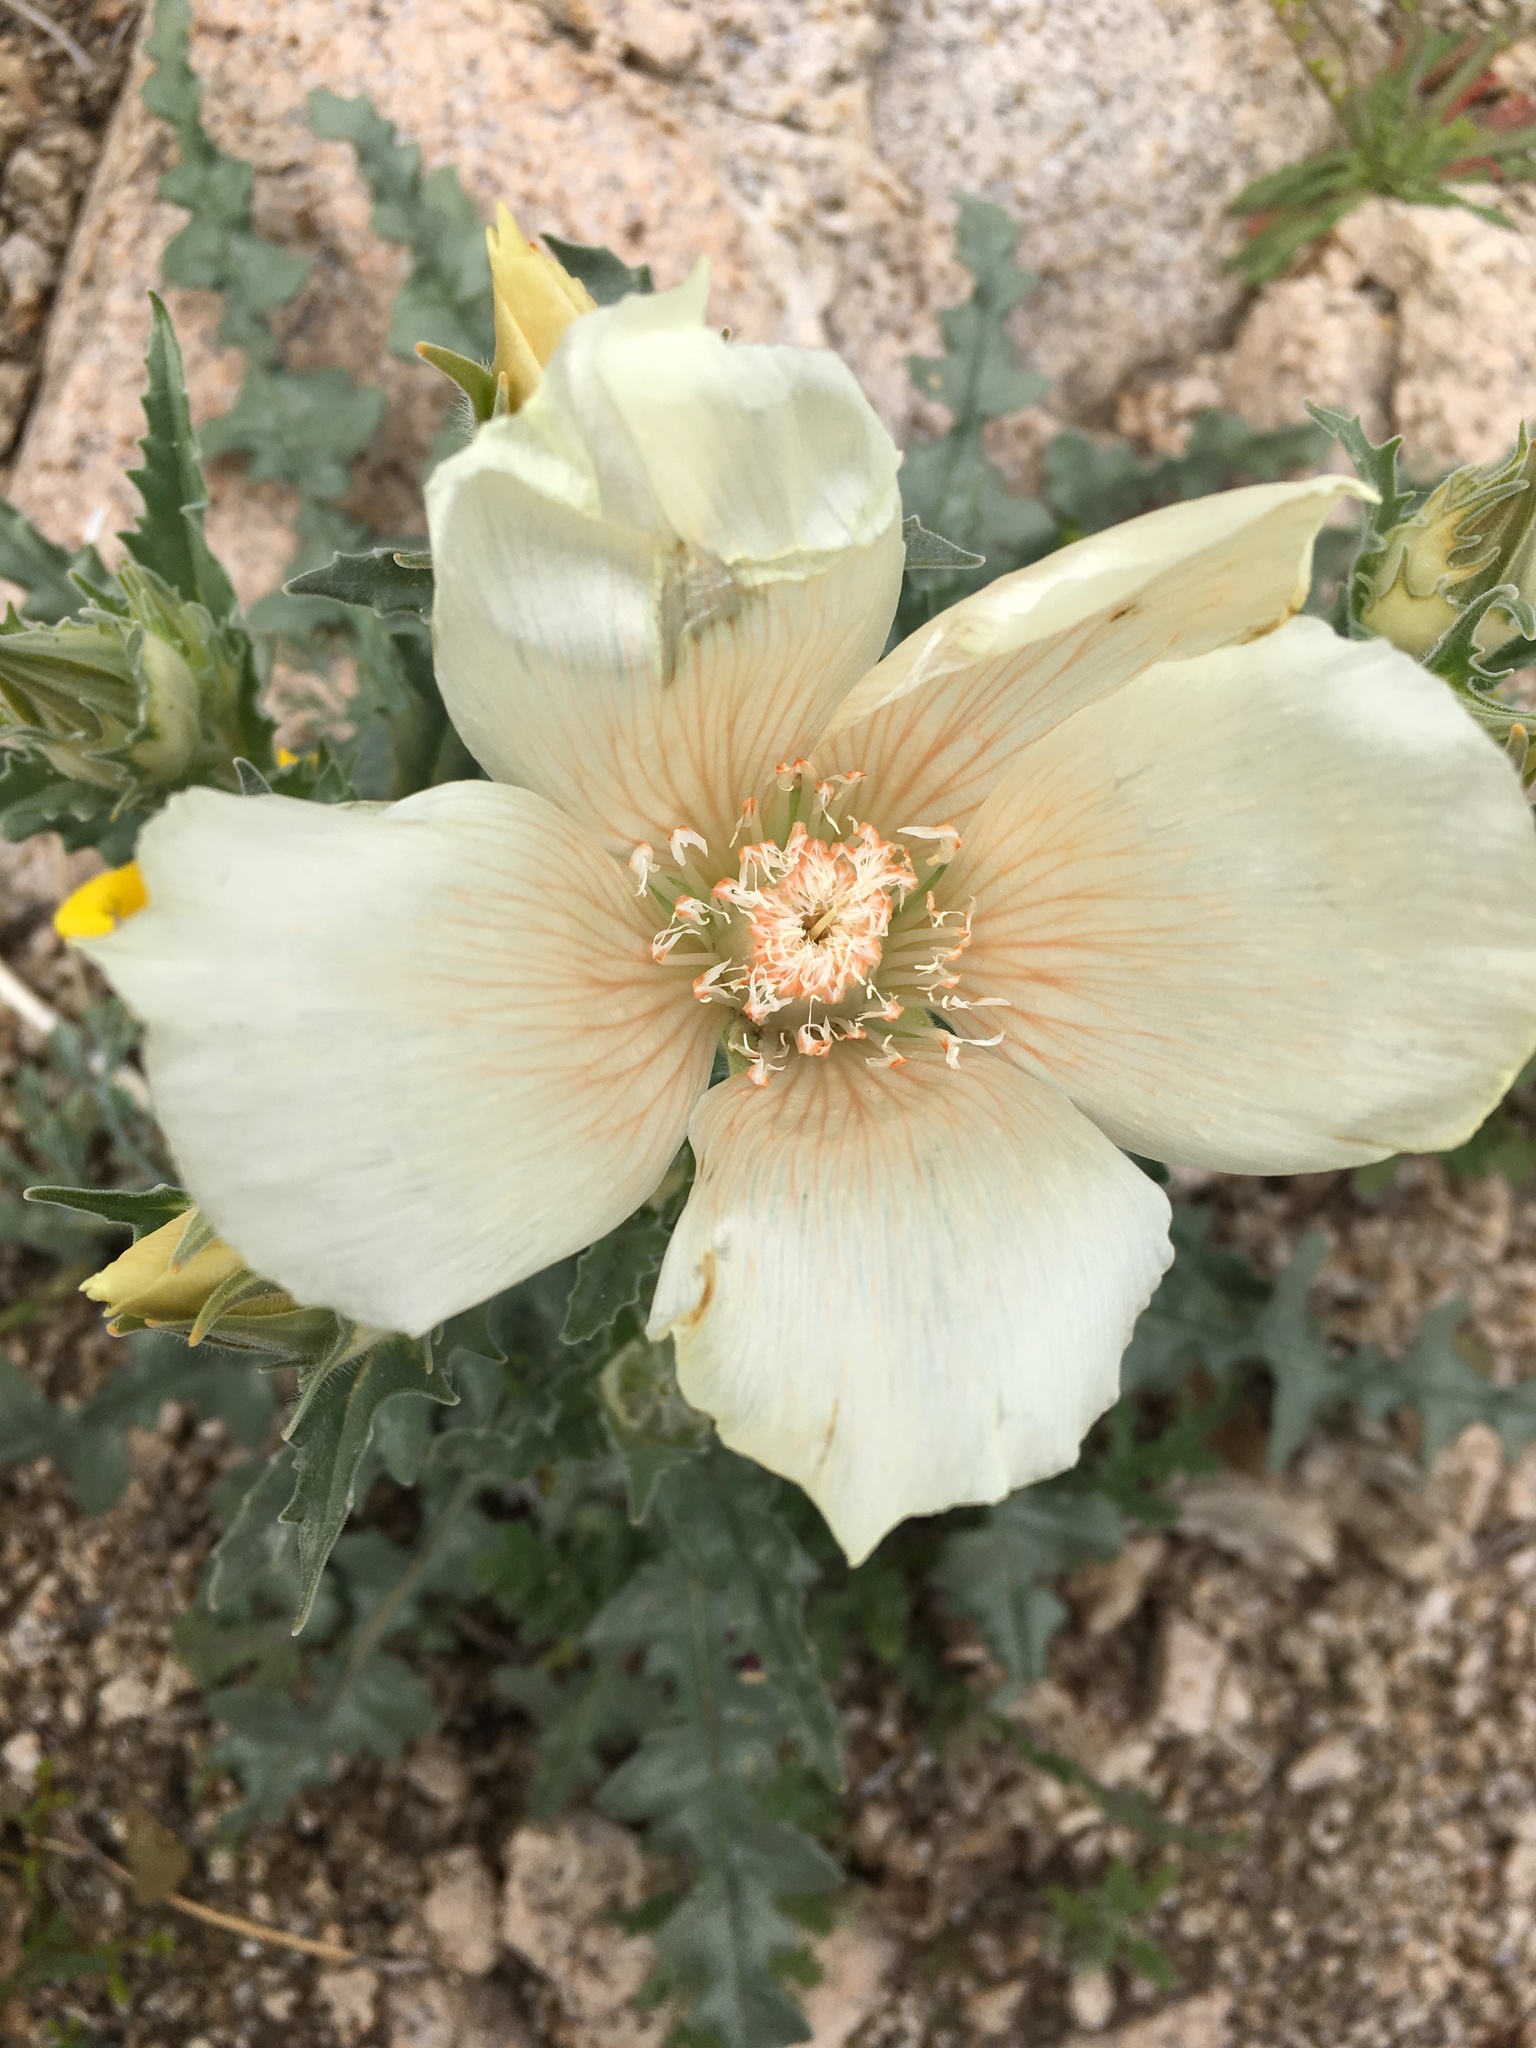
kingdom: Plantae
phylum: Tracheophyta
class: Magnoliopsida
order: Cornales
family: Loasaceae
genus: Mentzelia
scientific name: Mentzelia involucrata
